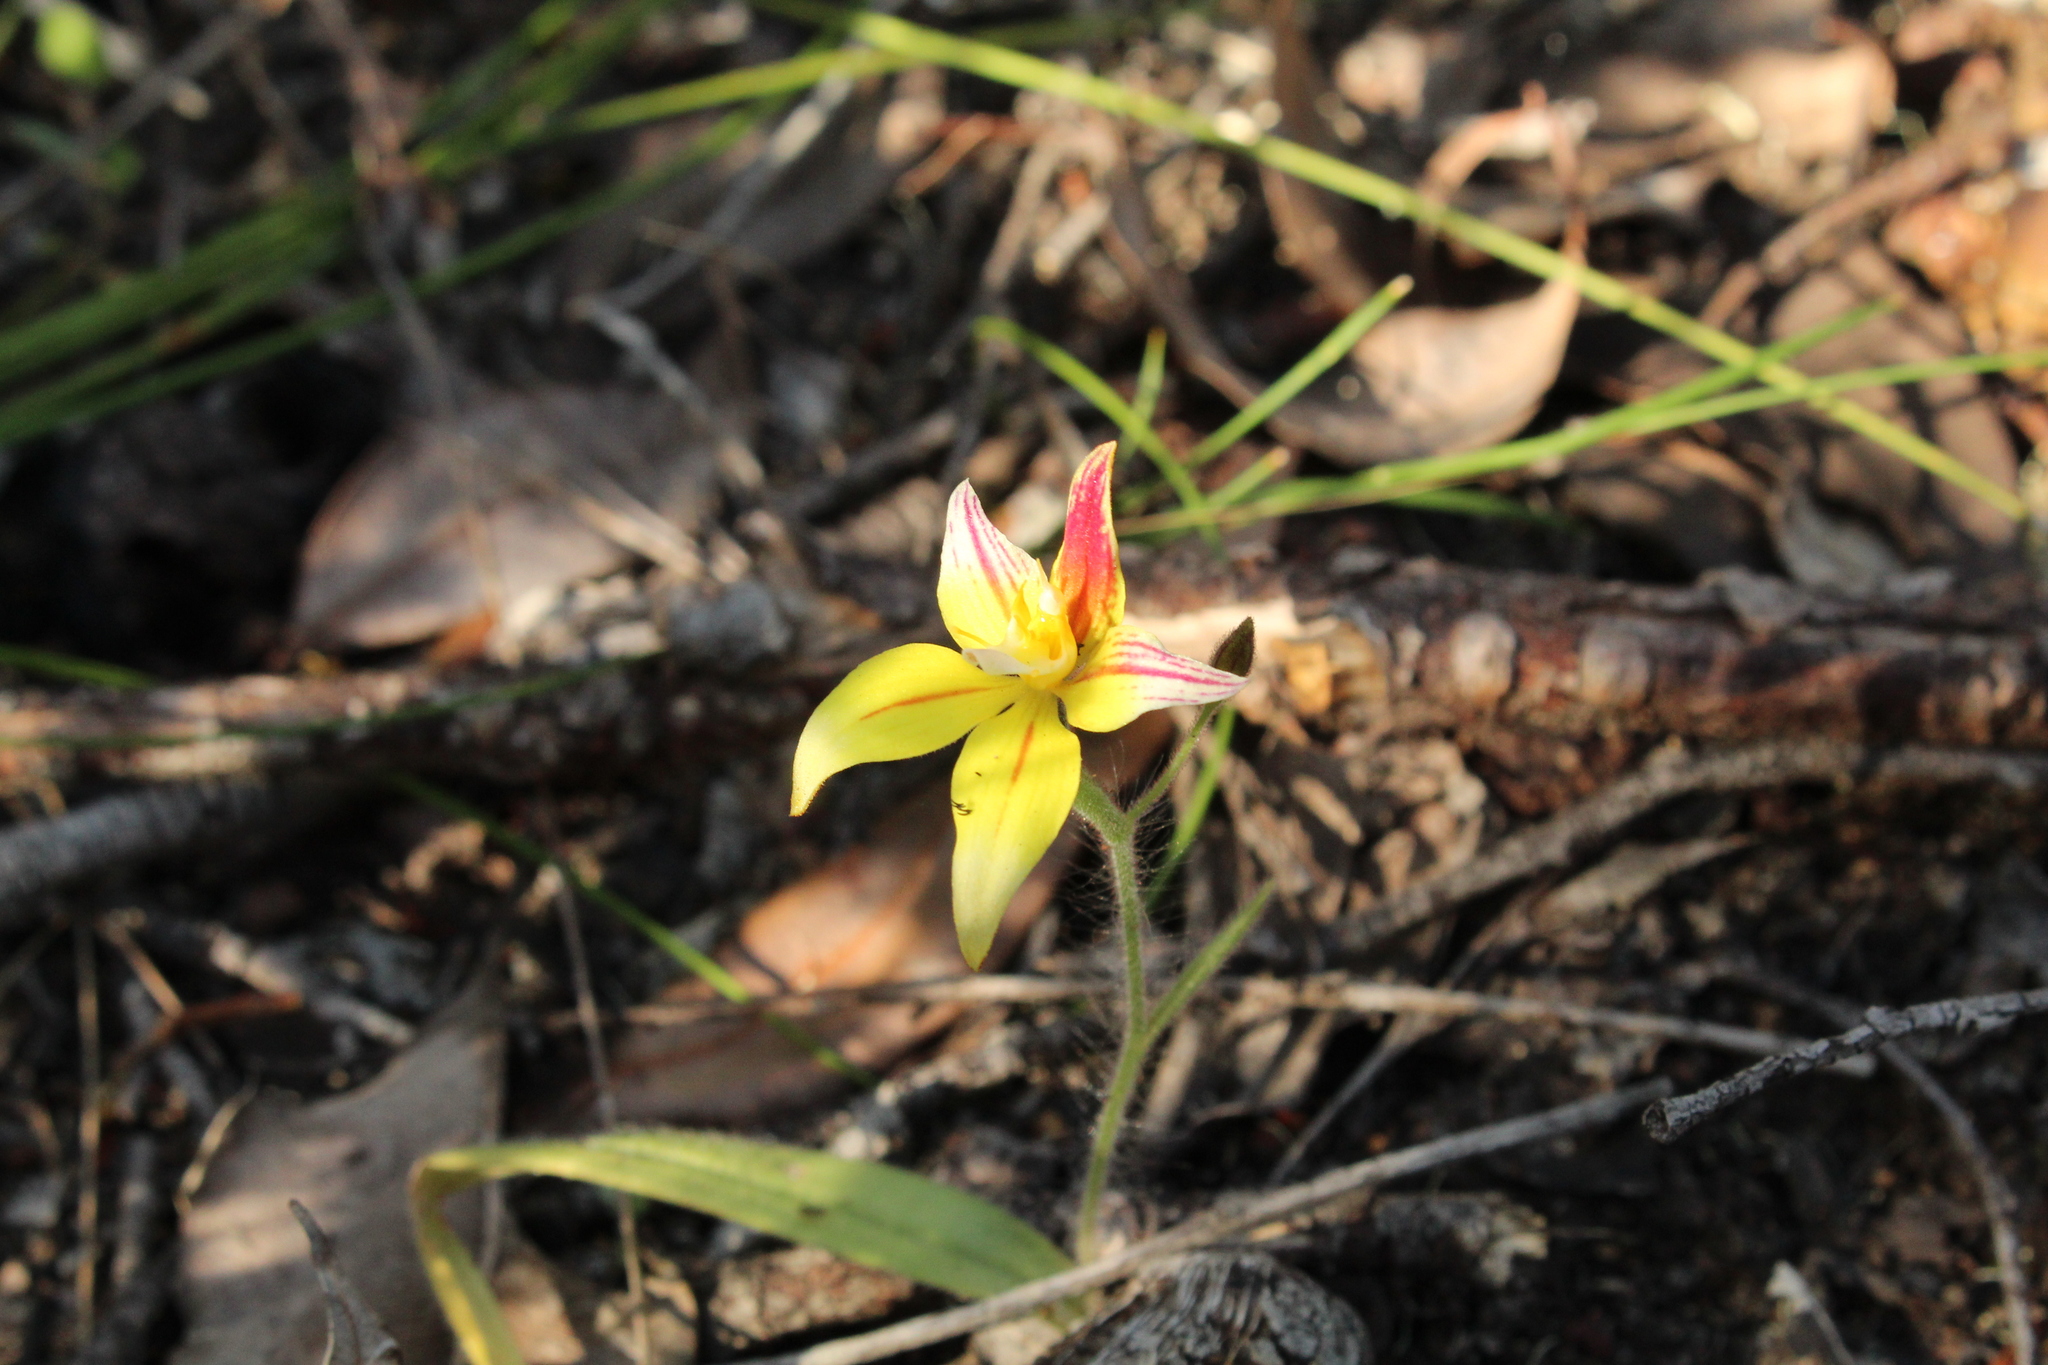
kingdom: Plantae
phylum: Tracheophyta
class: Liliopsida
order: Asparagales
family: Orchidaceae
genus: Caladenia
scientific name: Caladenia flava
